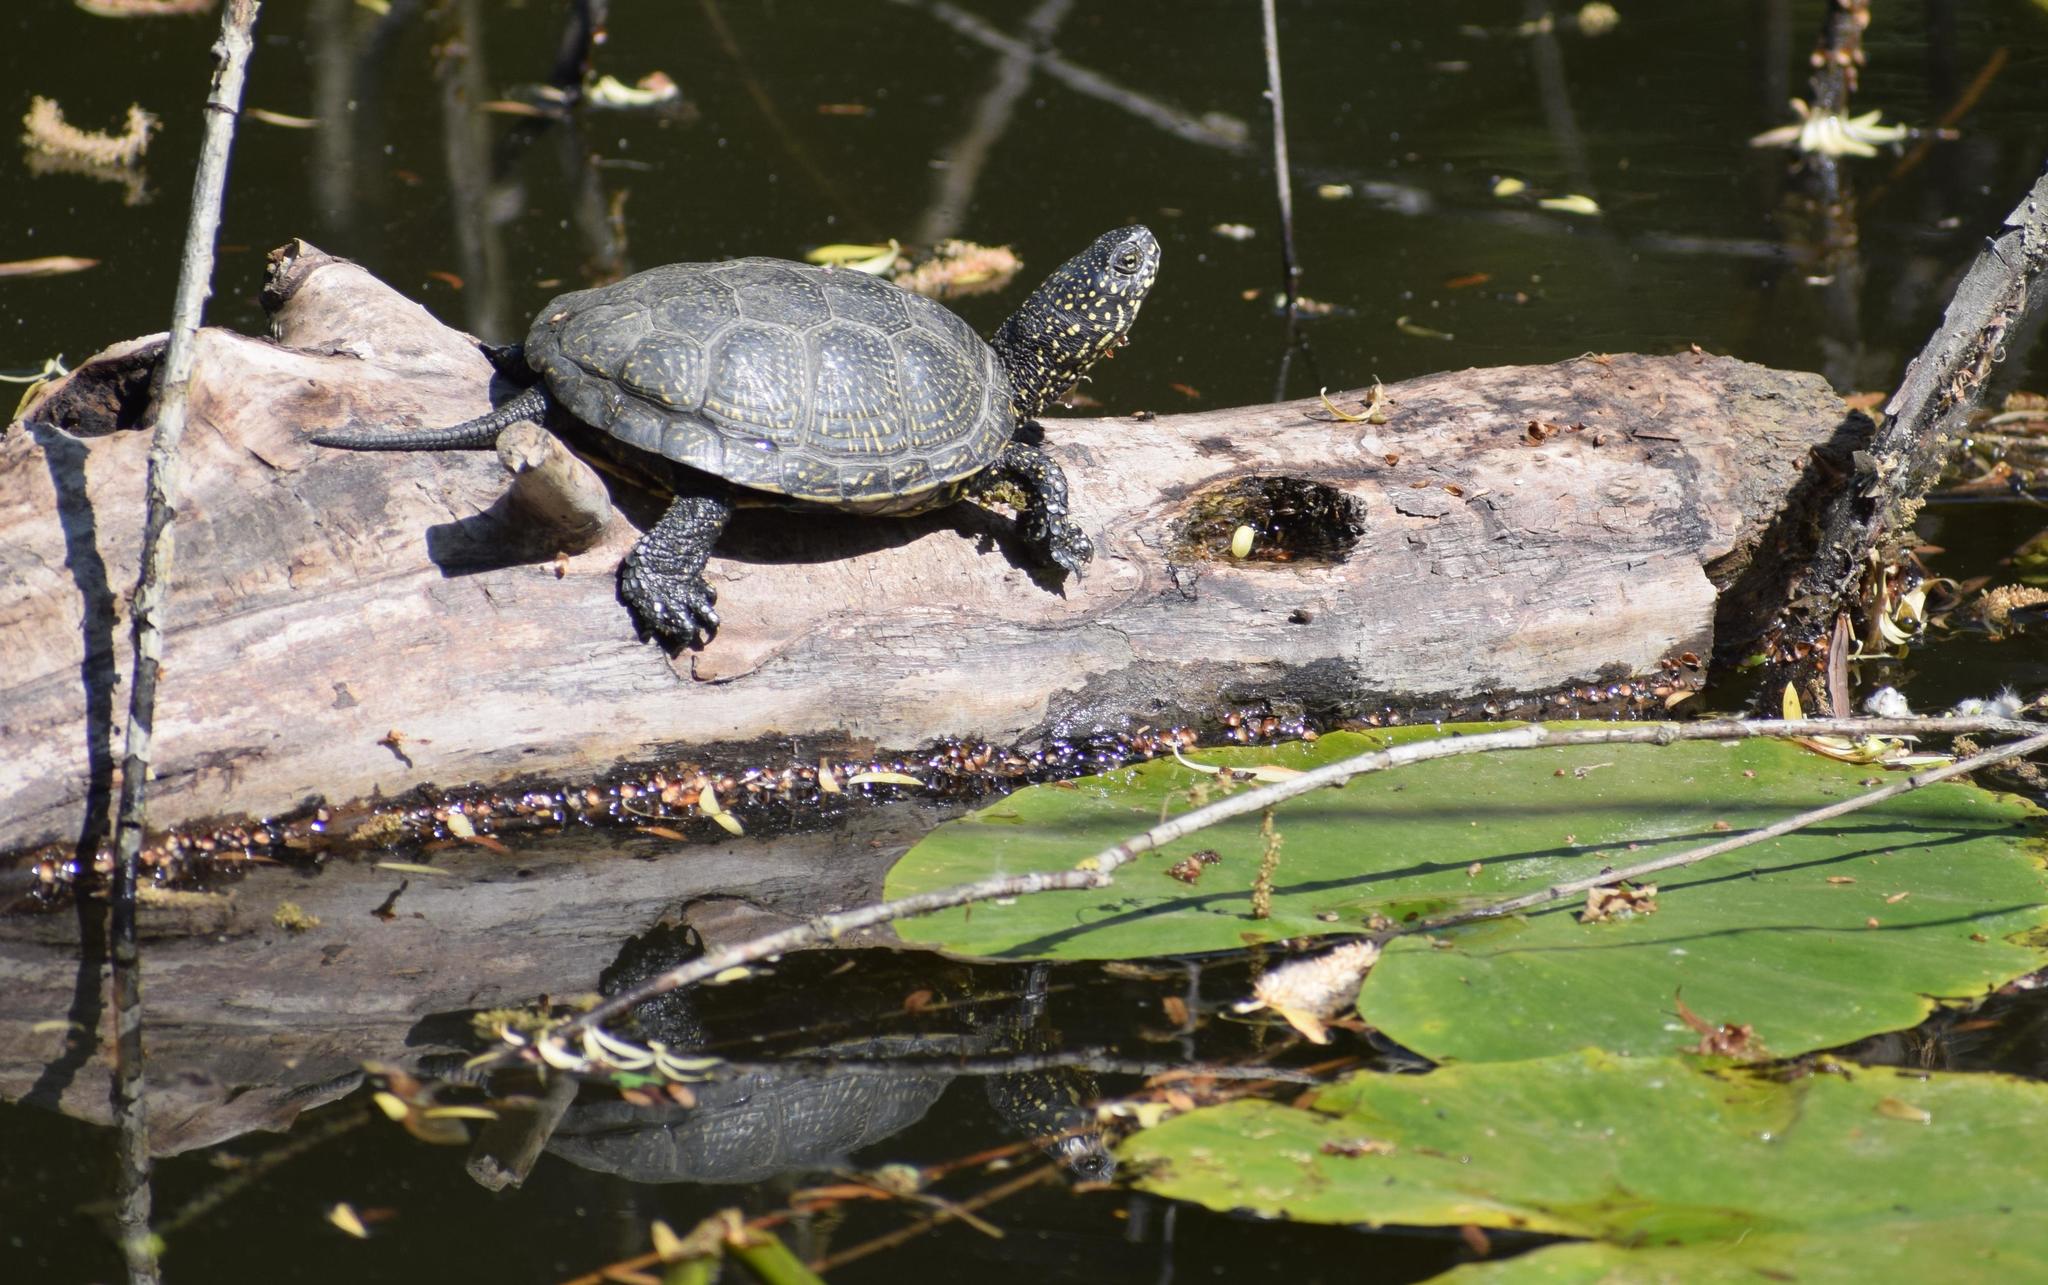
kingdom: Animalia
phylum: Chordata
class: Testudines
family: Emydidae
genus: Emys
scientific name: Emys orbicularis
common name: European pond turtle
